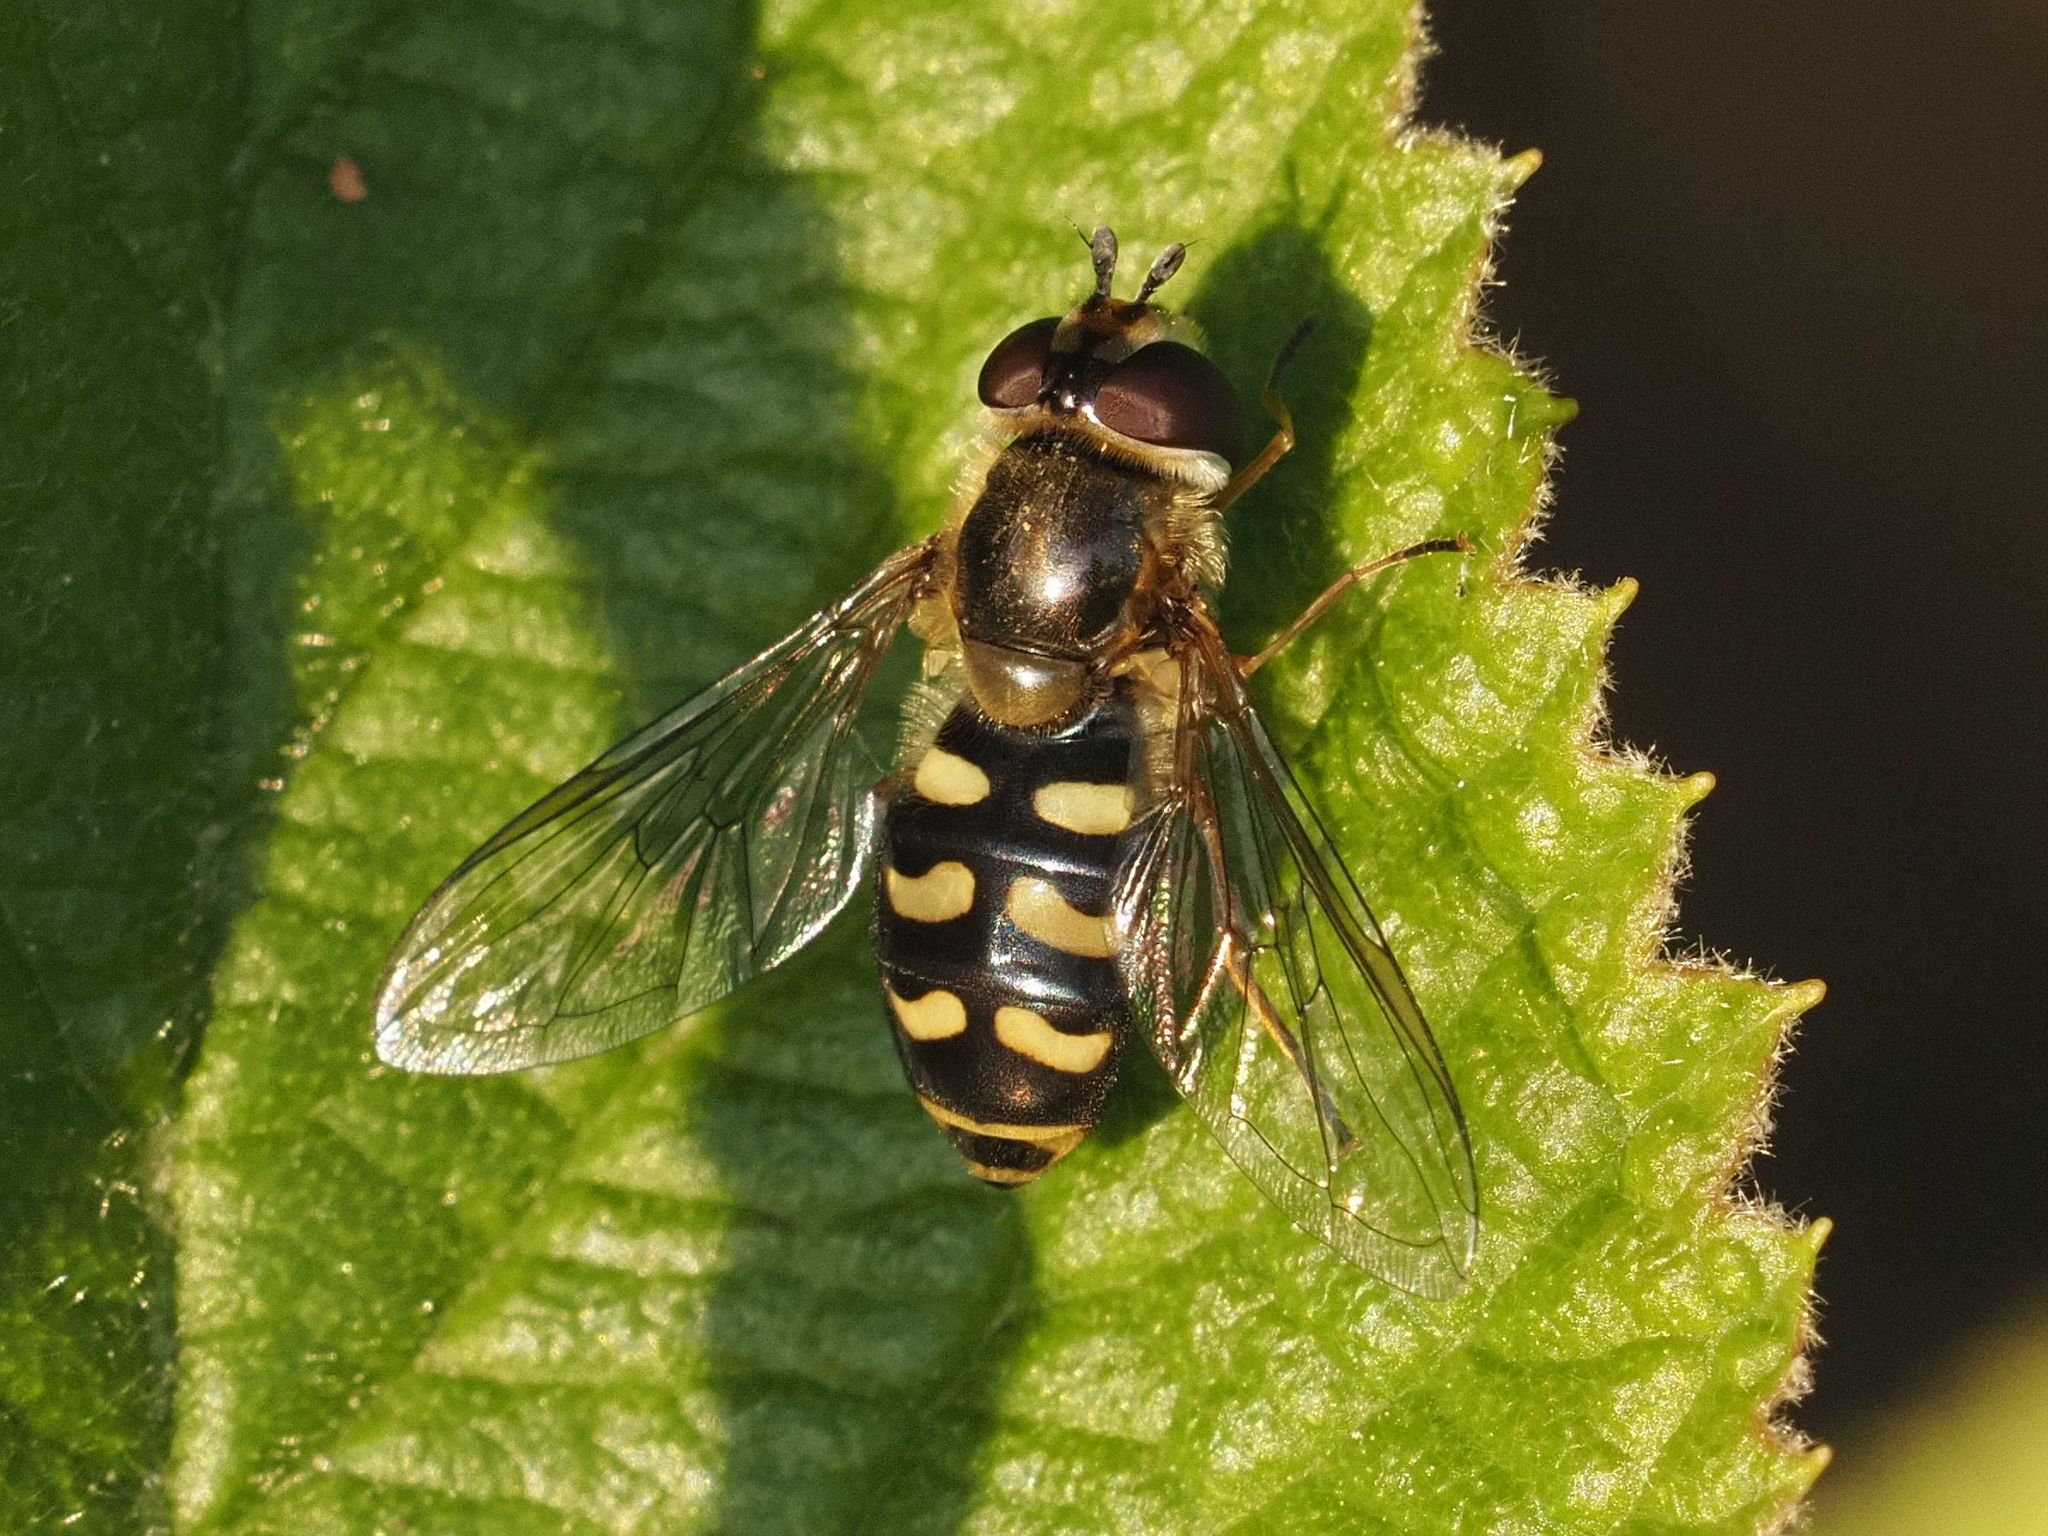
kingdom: Animalia
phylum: Arthropoda
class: Insecta
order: Diptera
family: Syrphidae
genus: Eupeodes
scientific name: Eupeodes luniger
